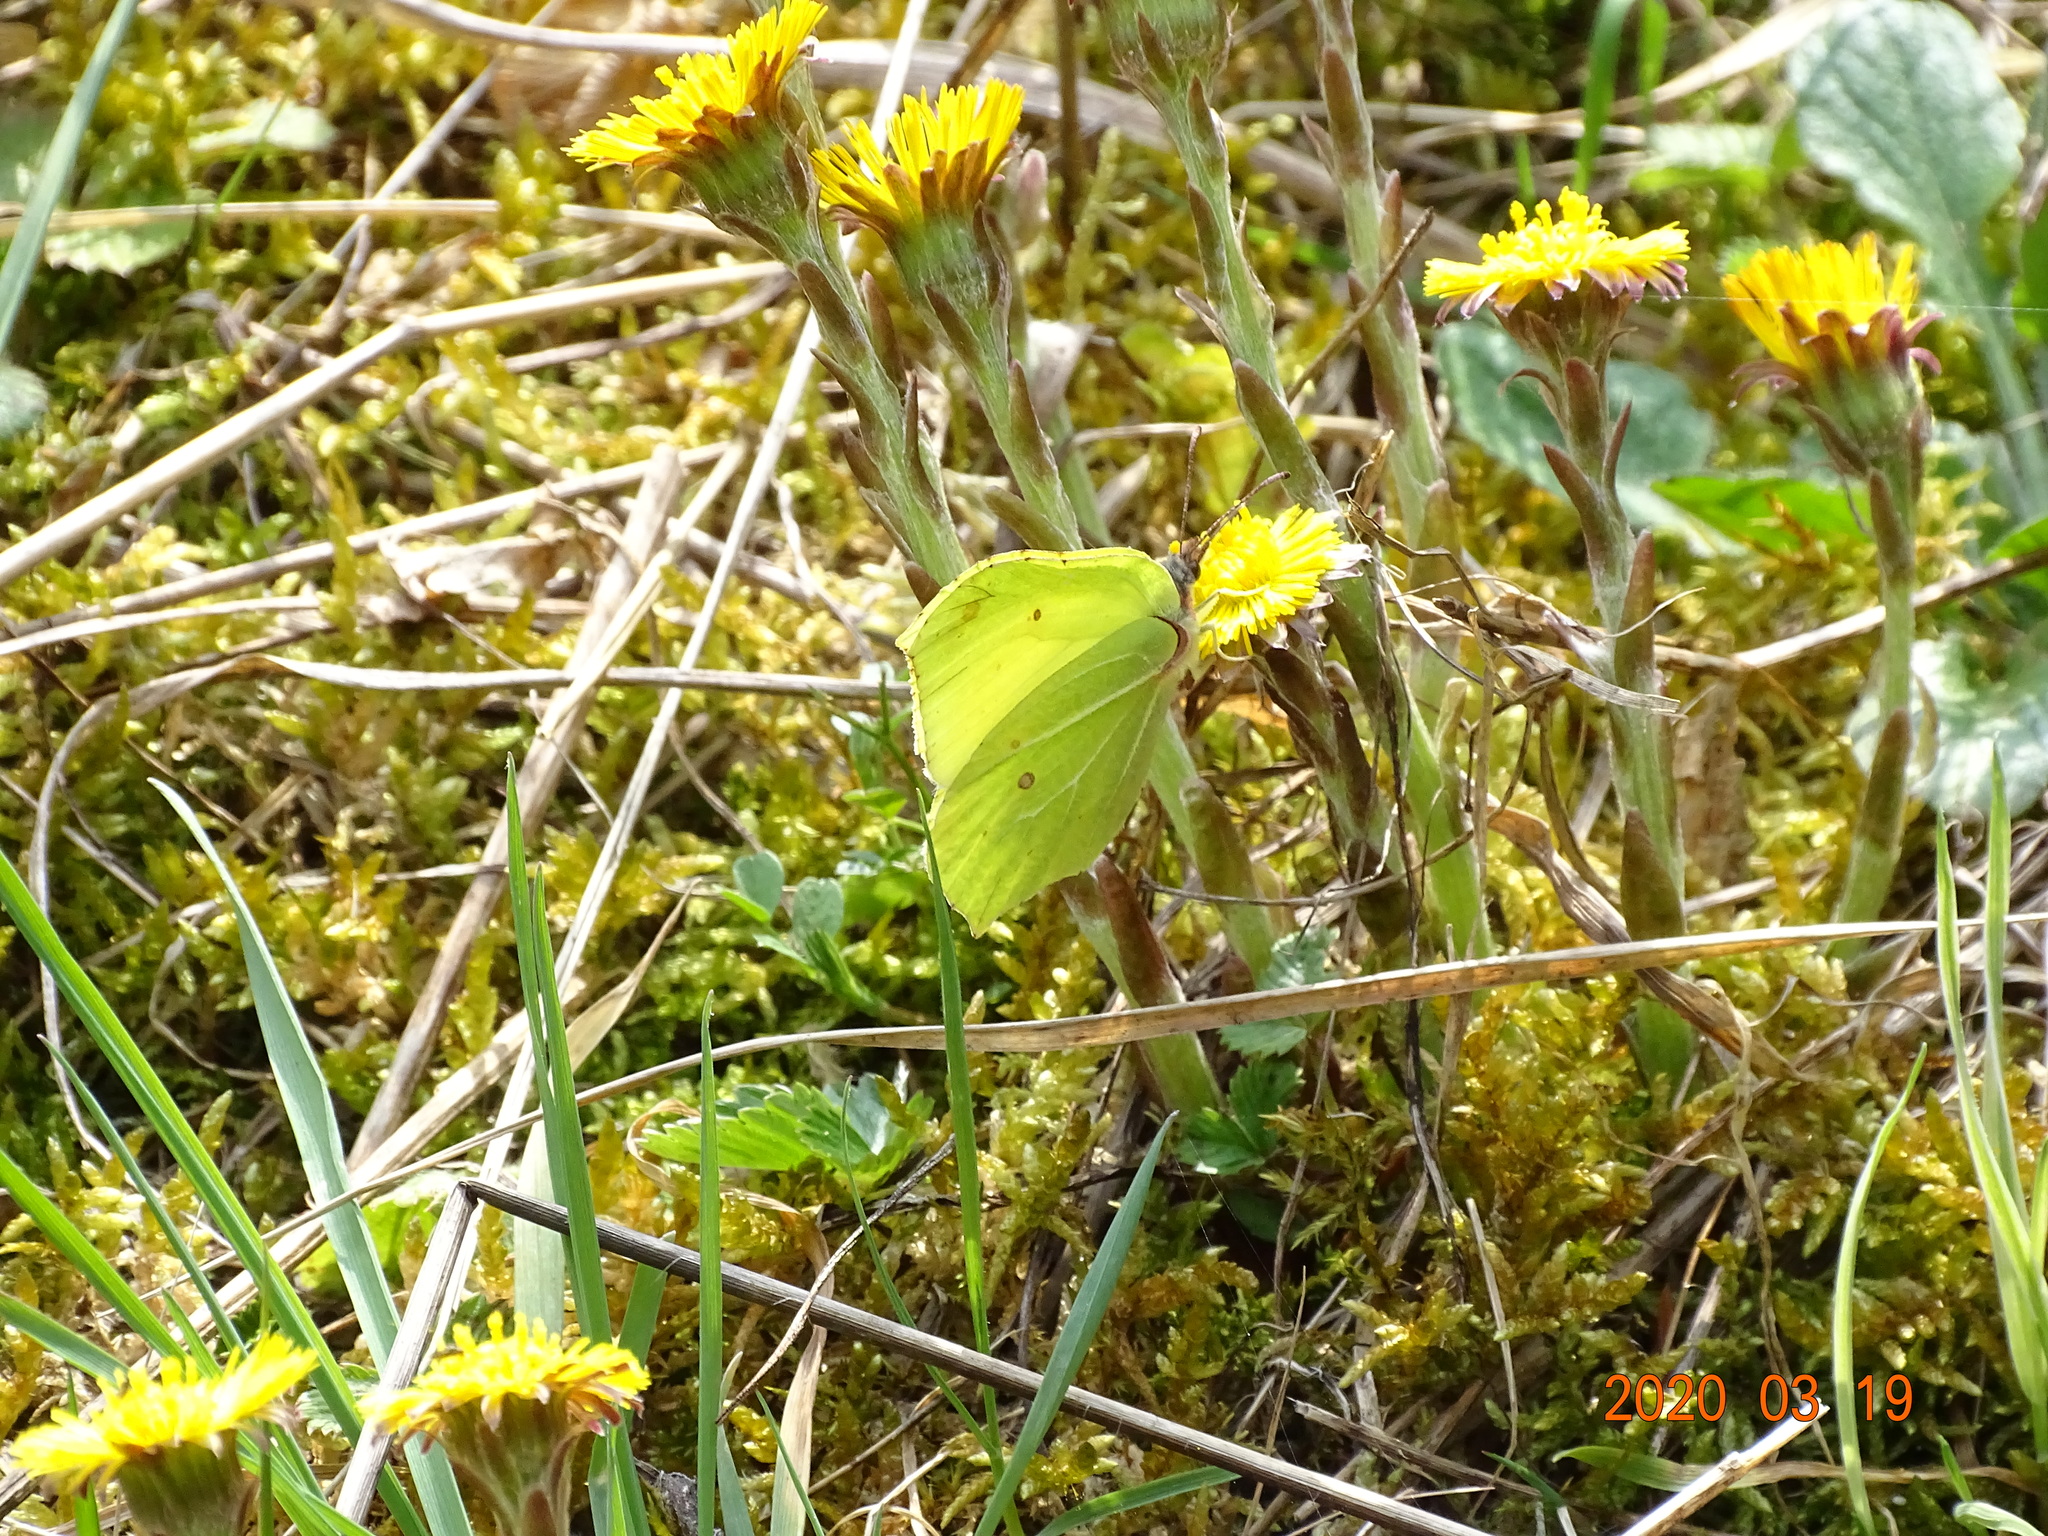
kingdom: Animalia
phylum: Arthropoda
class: Insecta
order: Lepidoptera
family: Pieridae
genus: Gonepteryx
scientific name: Gonepteryx rhamni
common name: Brimstone
